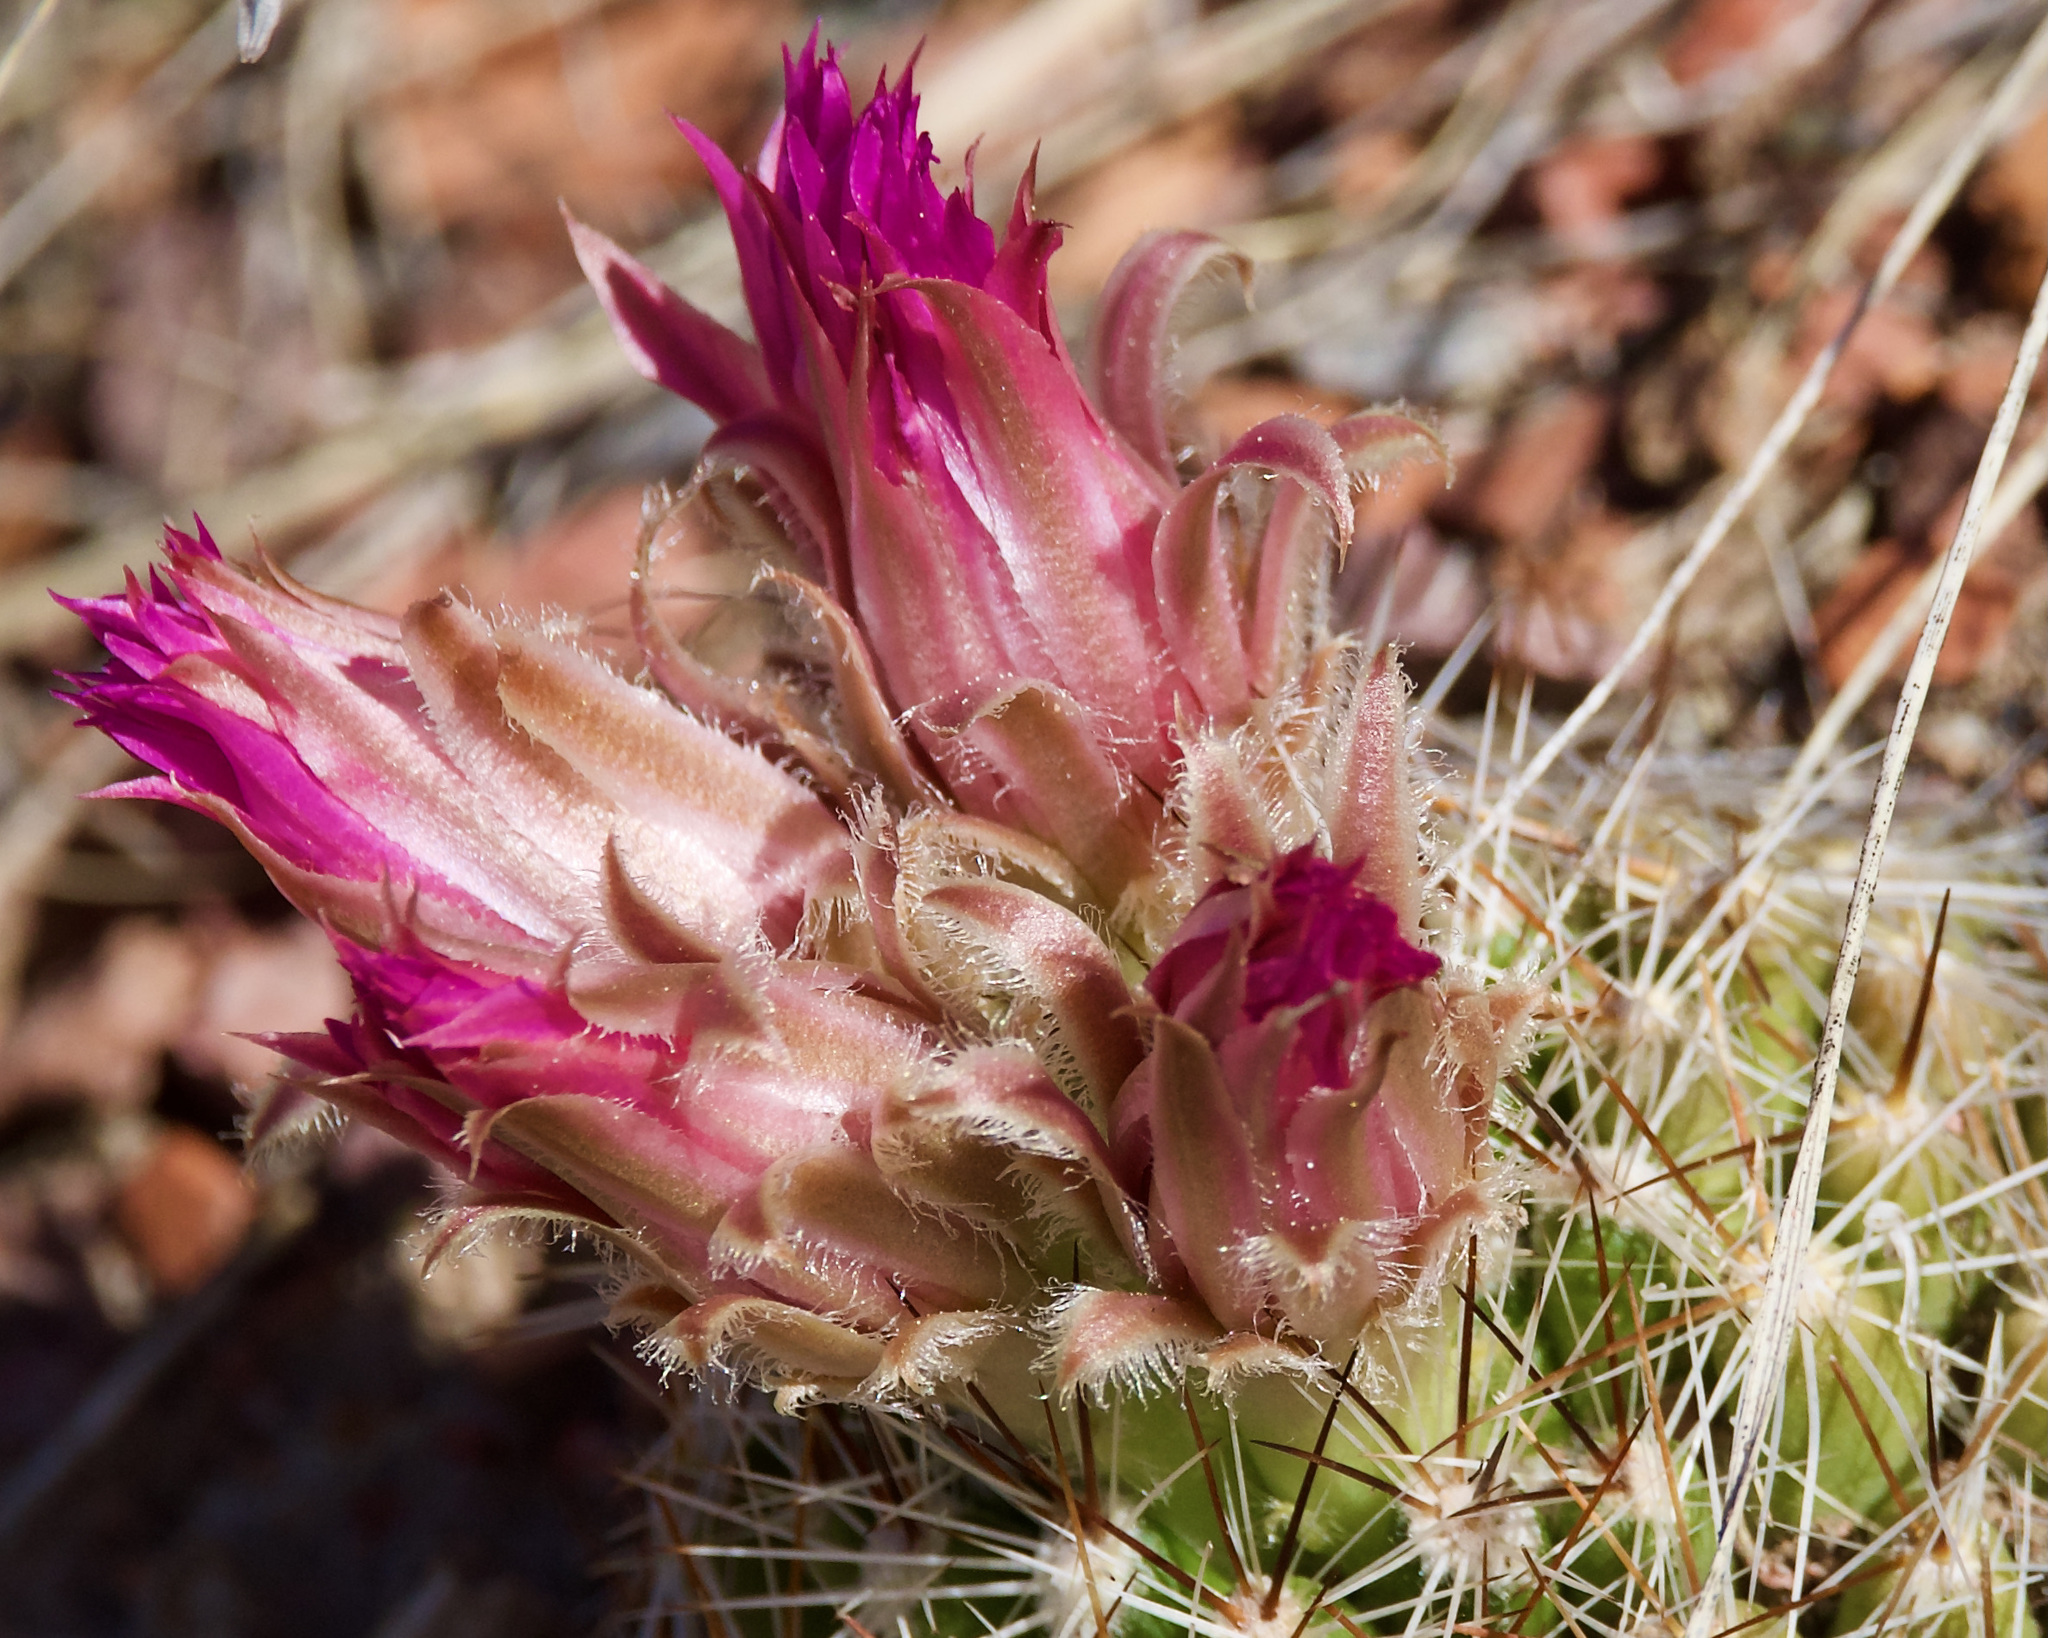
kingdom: Plantae
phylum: Tracheophyta
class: Magnoliopsida
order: Caryophyllales
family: Cactaceae
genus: Pelecyphora
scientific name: Pelecyphora vivipara
